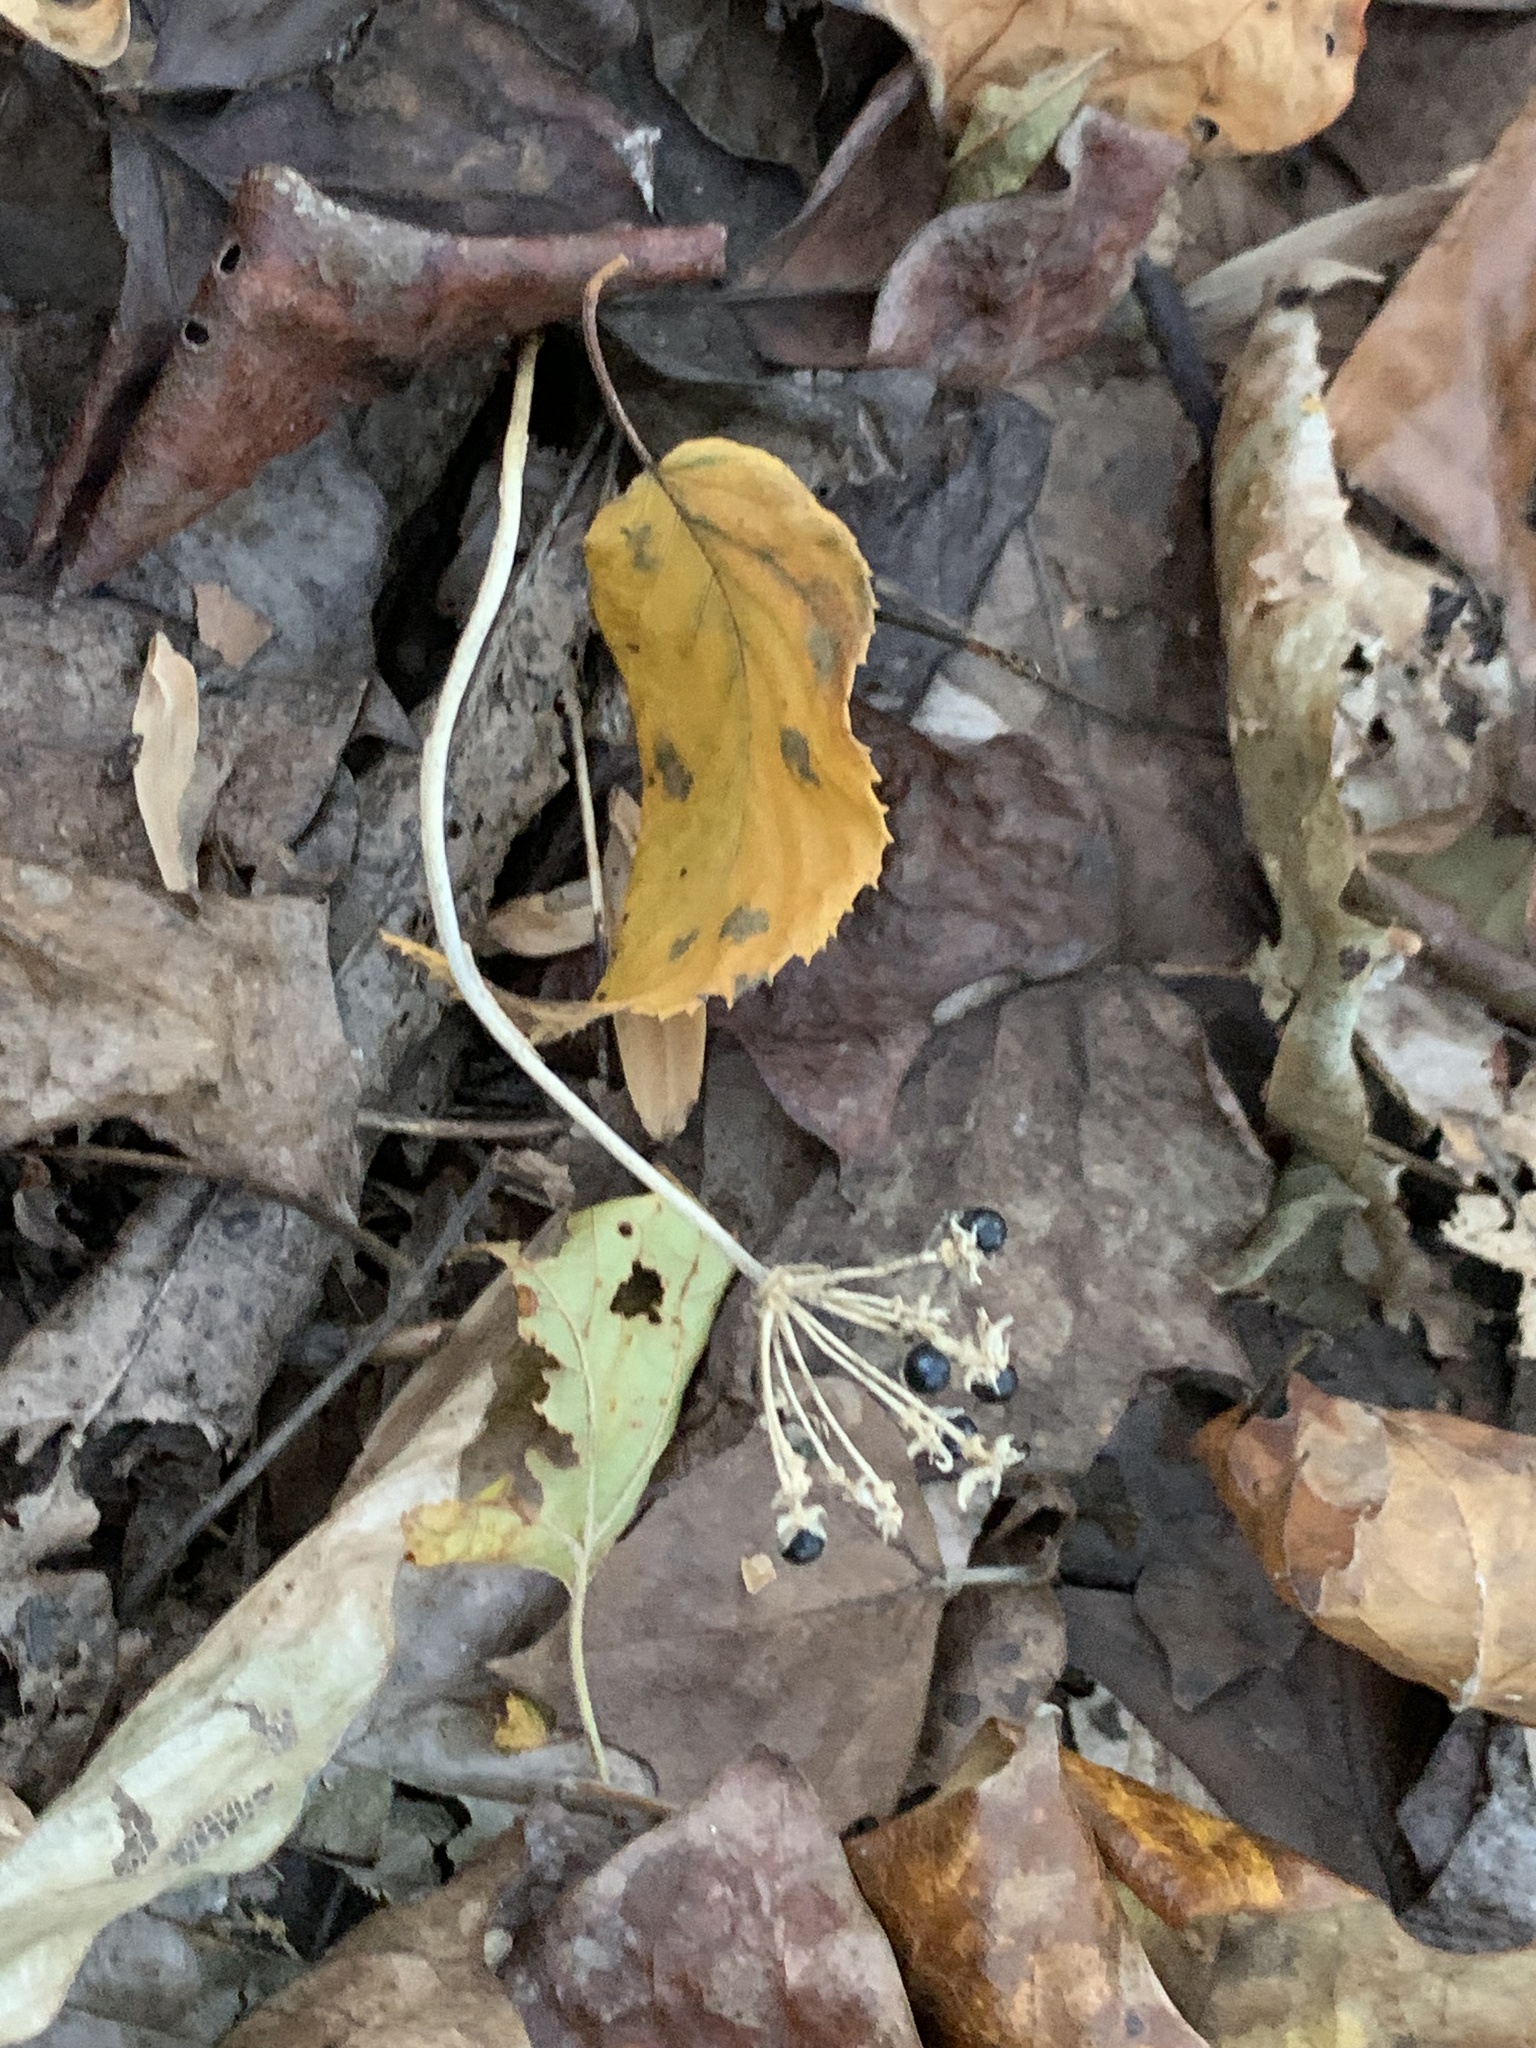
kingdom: Plantae
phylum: Tracheophyta
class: Liliopsida
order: Asparagales
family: Amaryllidaceae
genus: Allium
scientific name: Allium tricoccum
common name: Ramp
